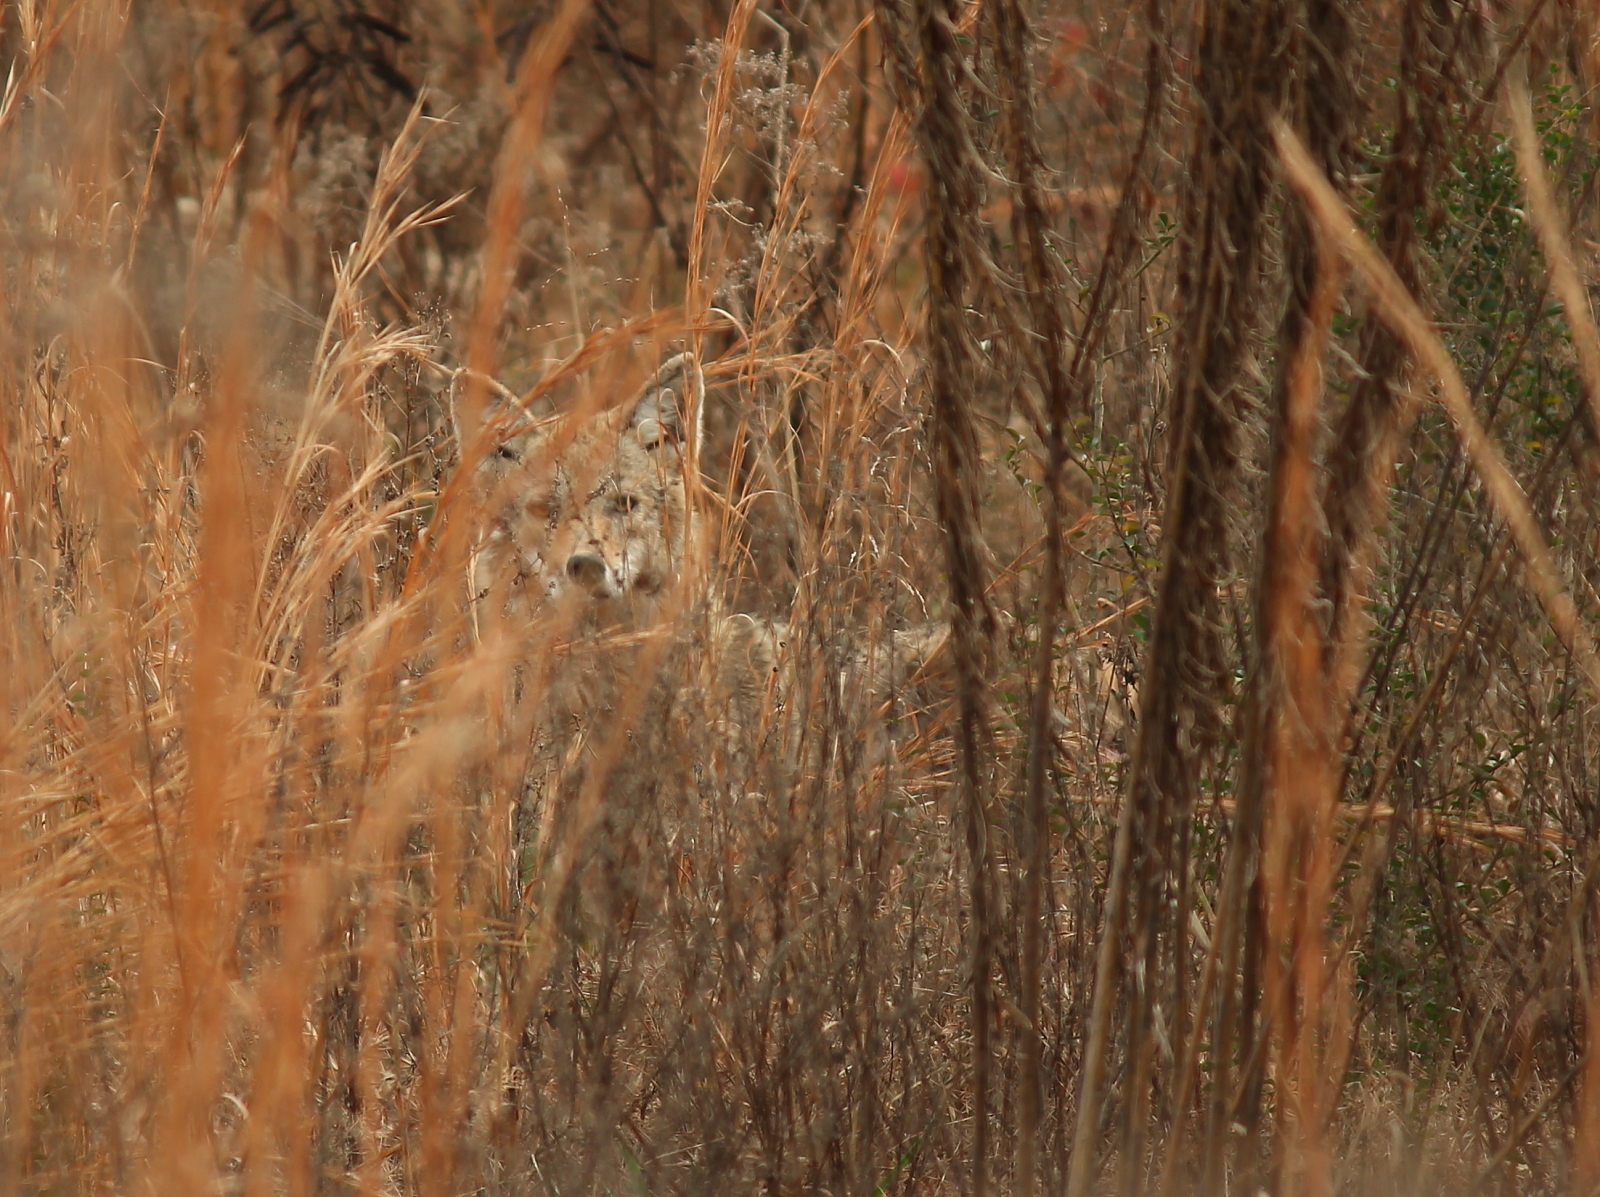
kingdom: Animalia
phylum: Chordata
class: Mammalia
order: Carnivora
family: Canidae
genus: Canis
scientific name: Canis latrans
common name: Coyote
